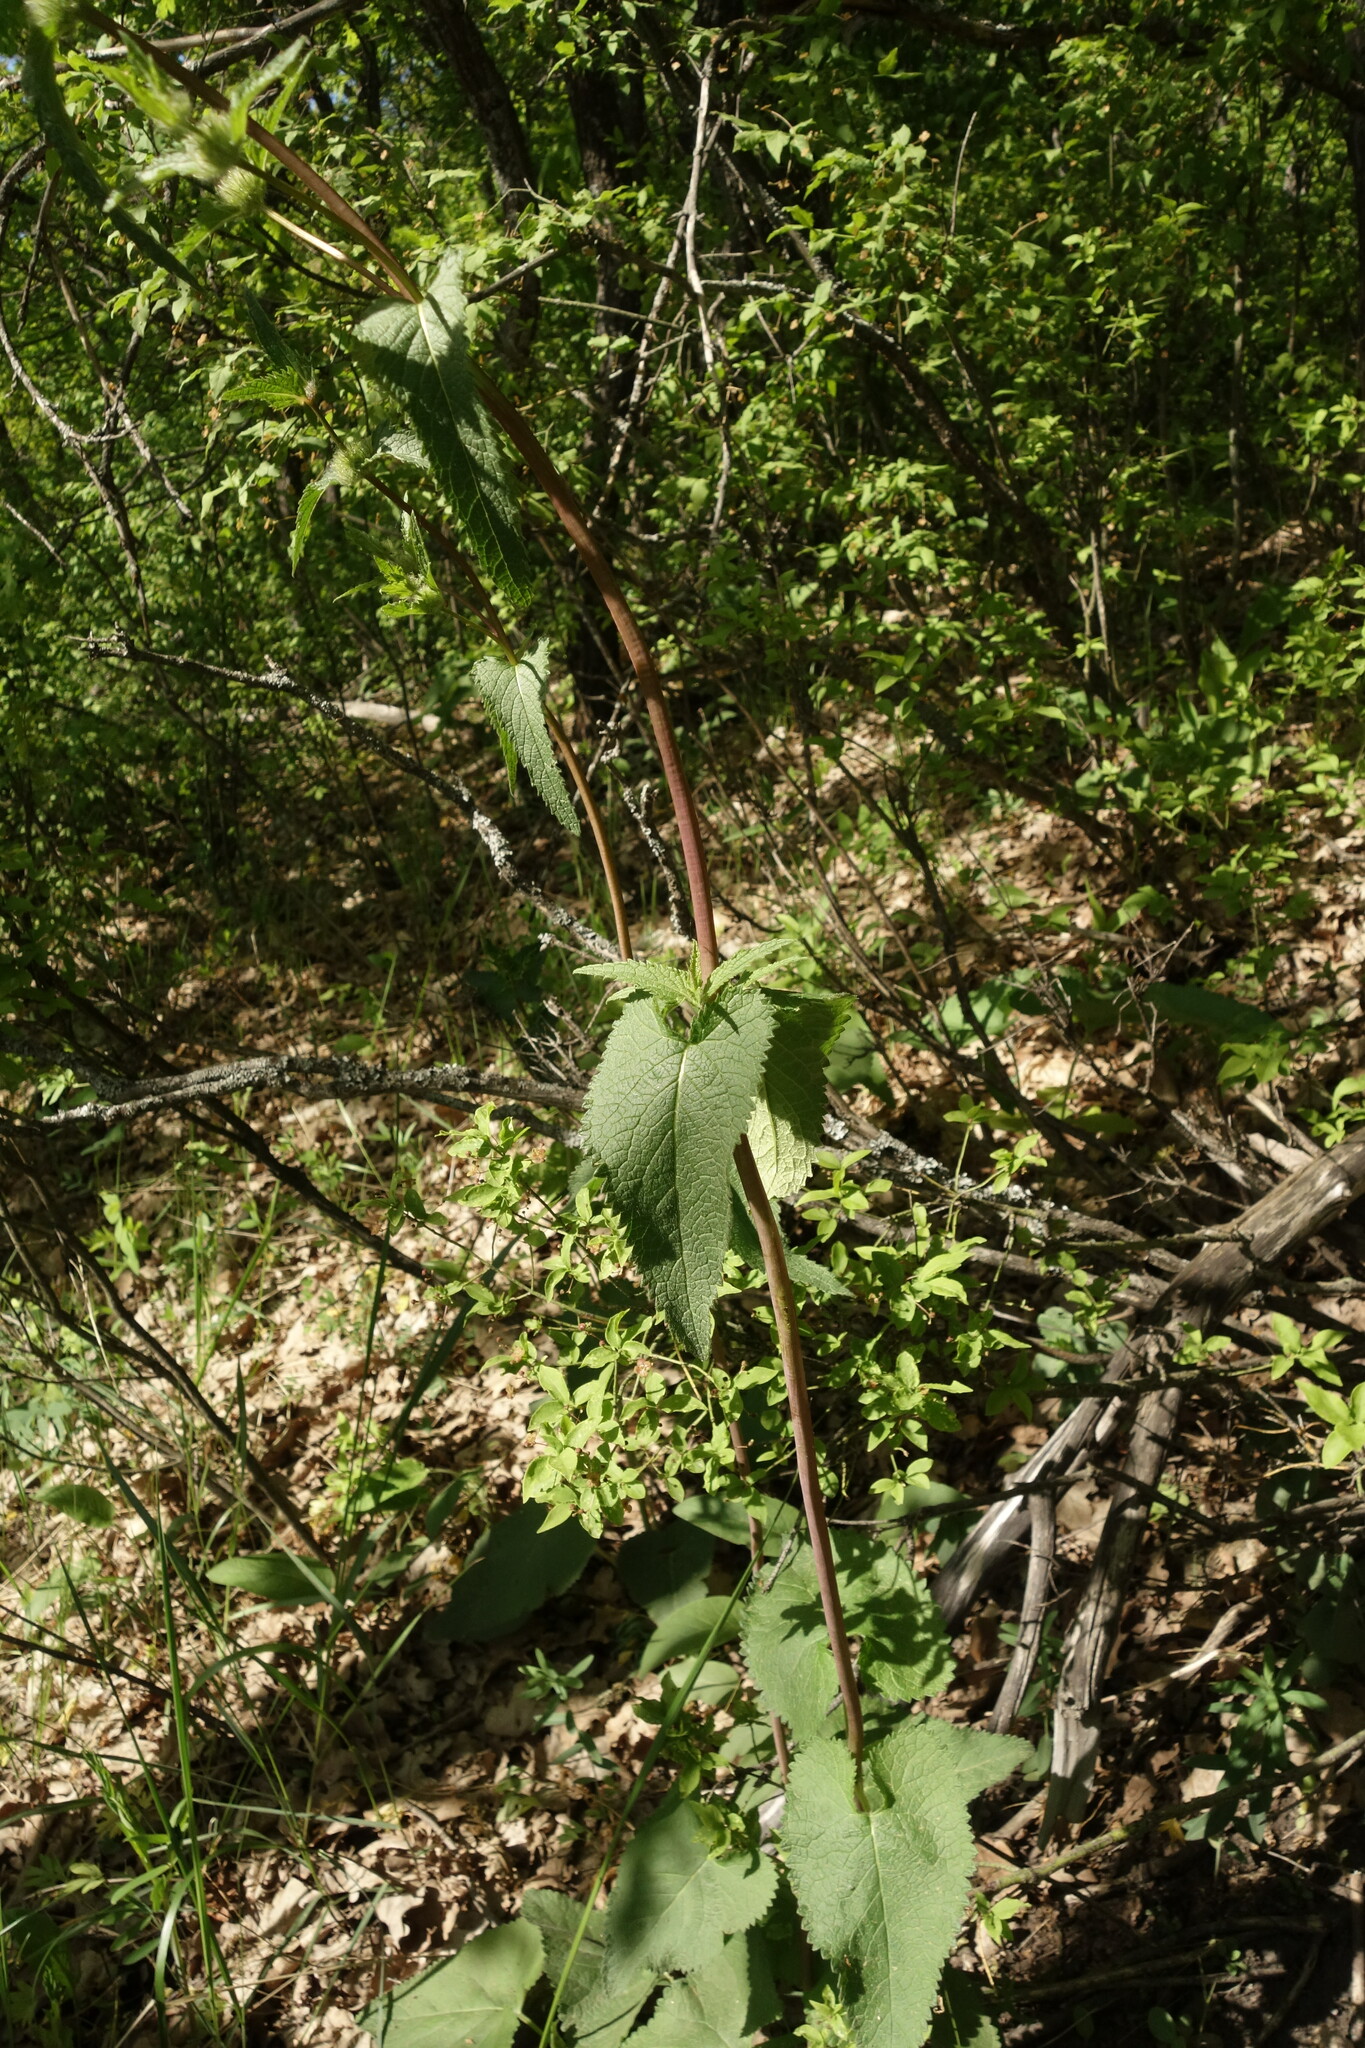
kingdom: Plantae
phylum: Tracheophyta
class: Magnoliopsida
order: Lamiales
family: Lamiaceae
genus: Phlomoides
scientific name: Phlomoides tuberosa
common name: Tuberous jerusalem sage
